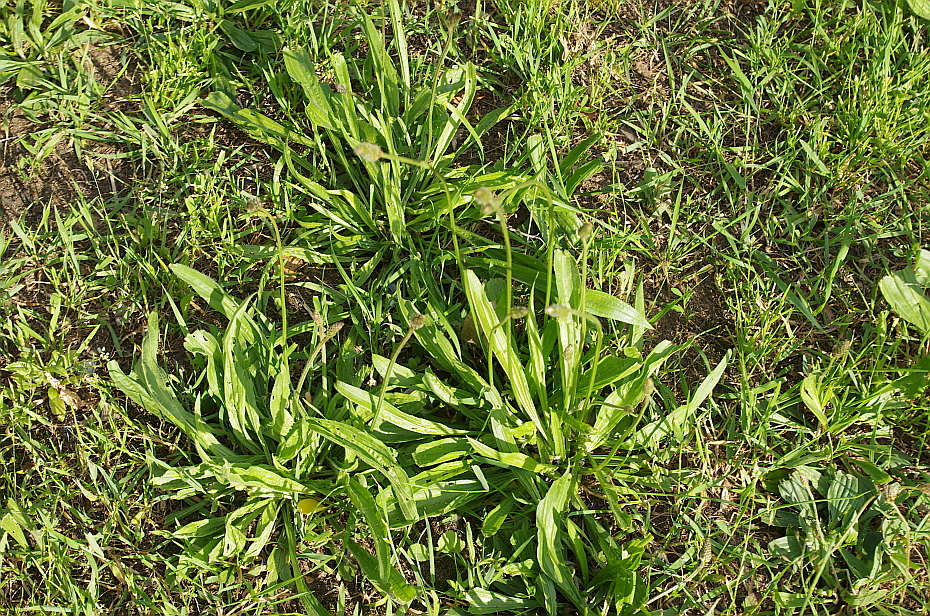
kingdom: Plantae
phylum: Tracheophyta
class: Magnoliopsida
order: Lamiales
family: Plantaginaceae
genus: Plantago
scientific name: Plantago lanceolata
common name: Ribwort plantain
